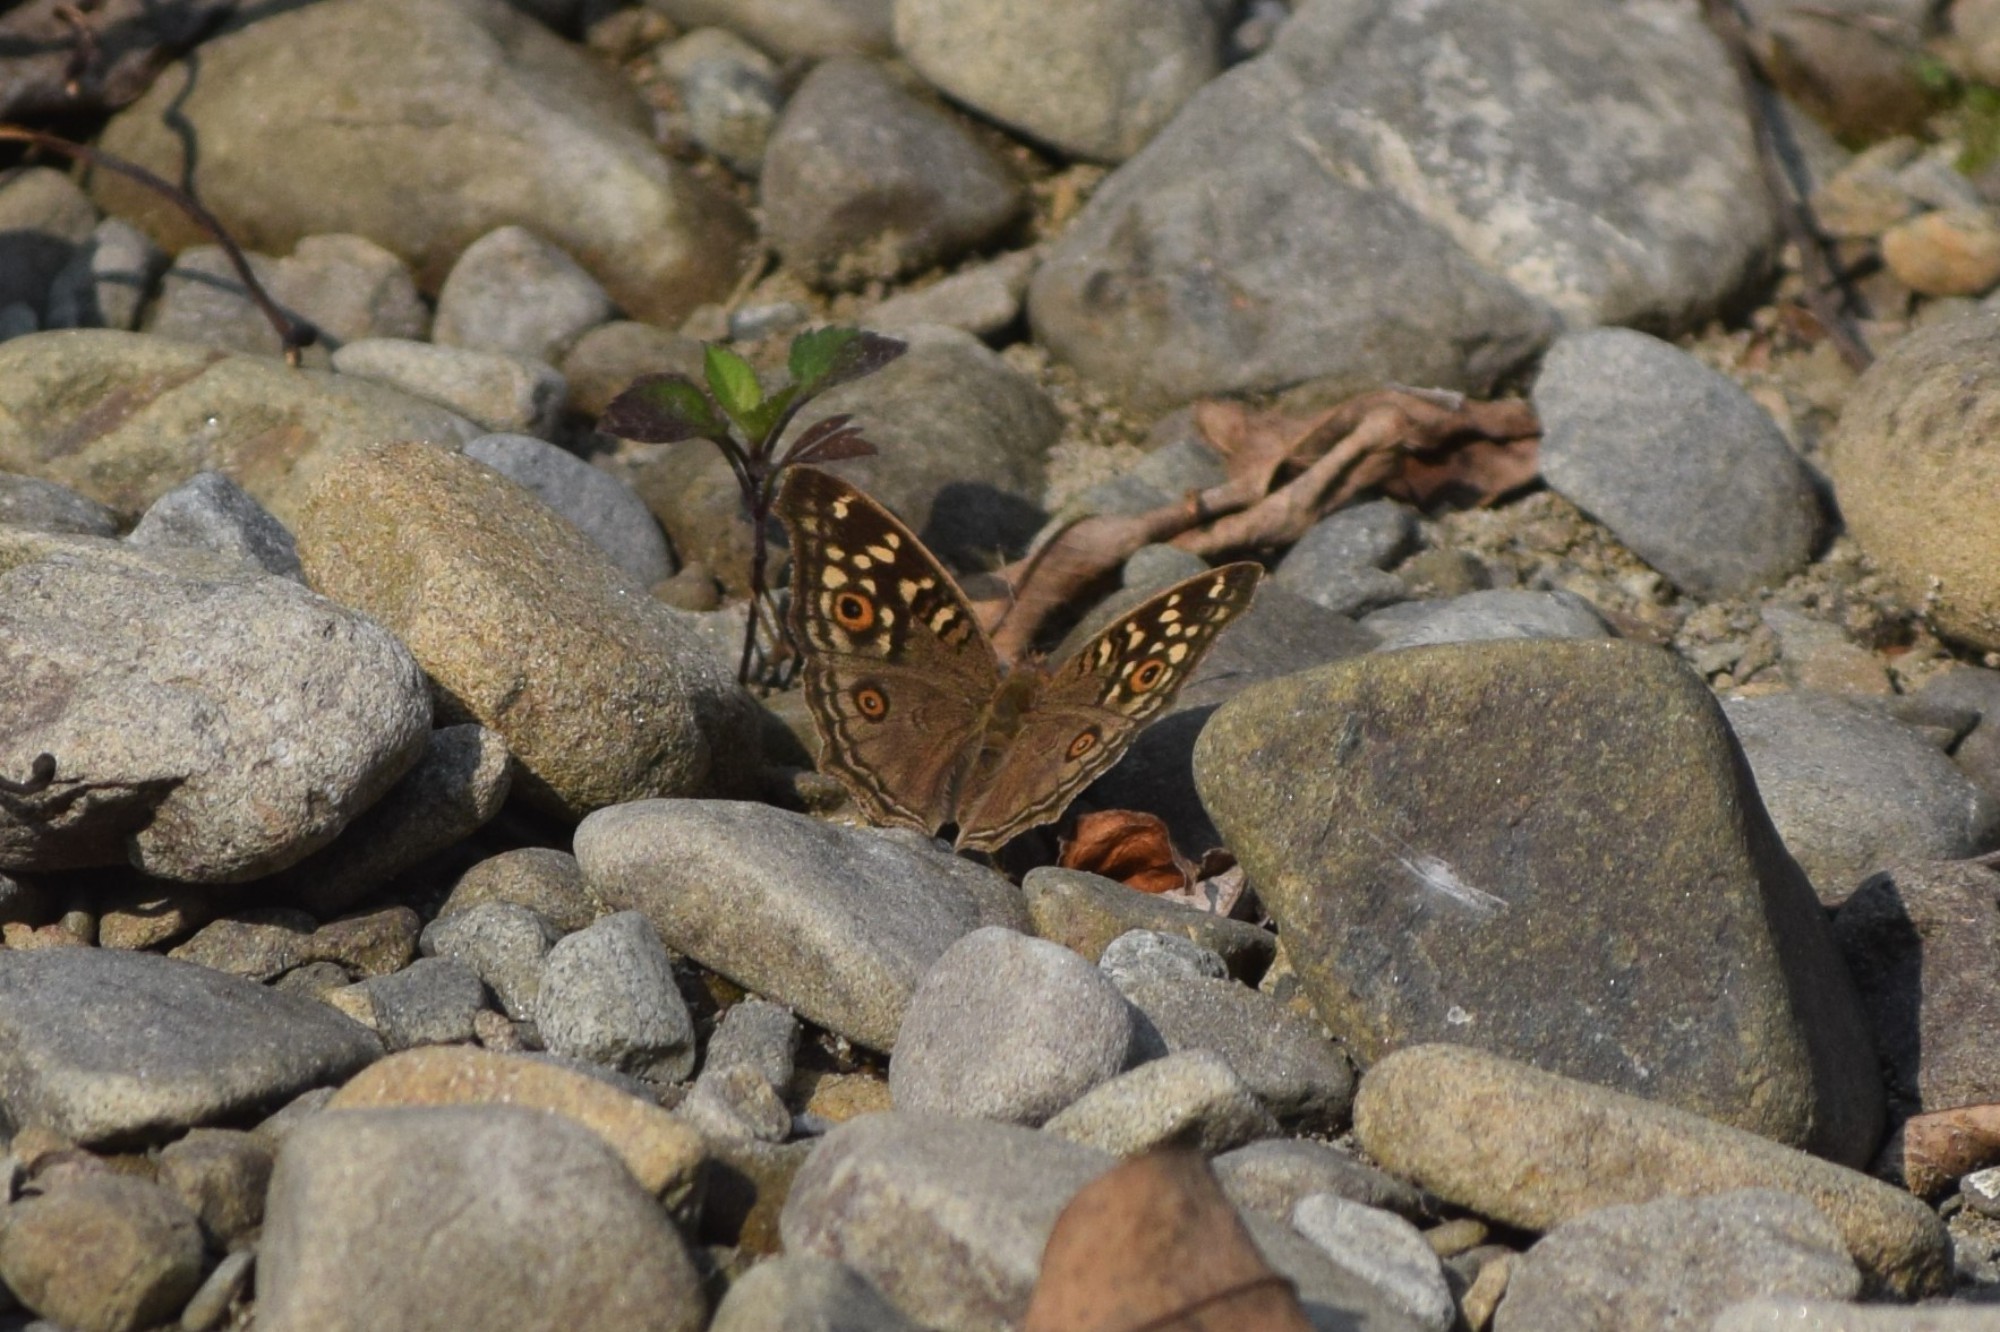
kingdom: Animalia
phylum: Arthropoda
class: Insecta
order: Lepidoptera
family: Nymphalidae
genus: Junonia
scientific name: Junonia lemonias
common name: Lemon pansy
